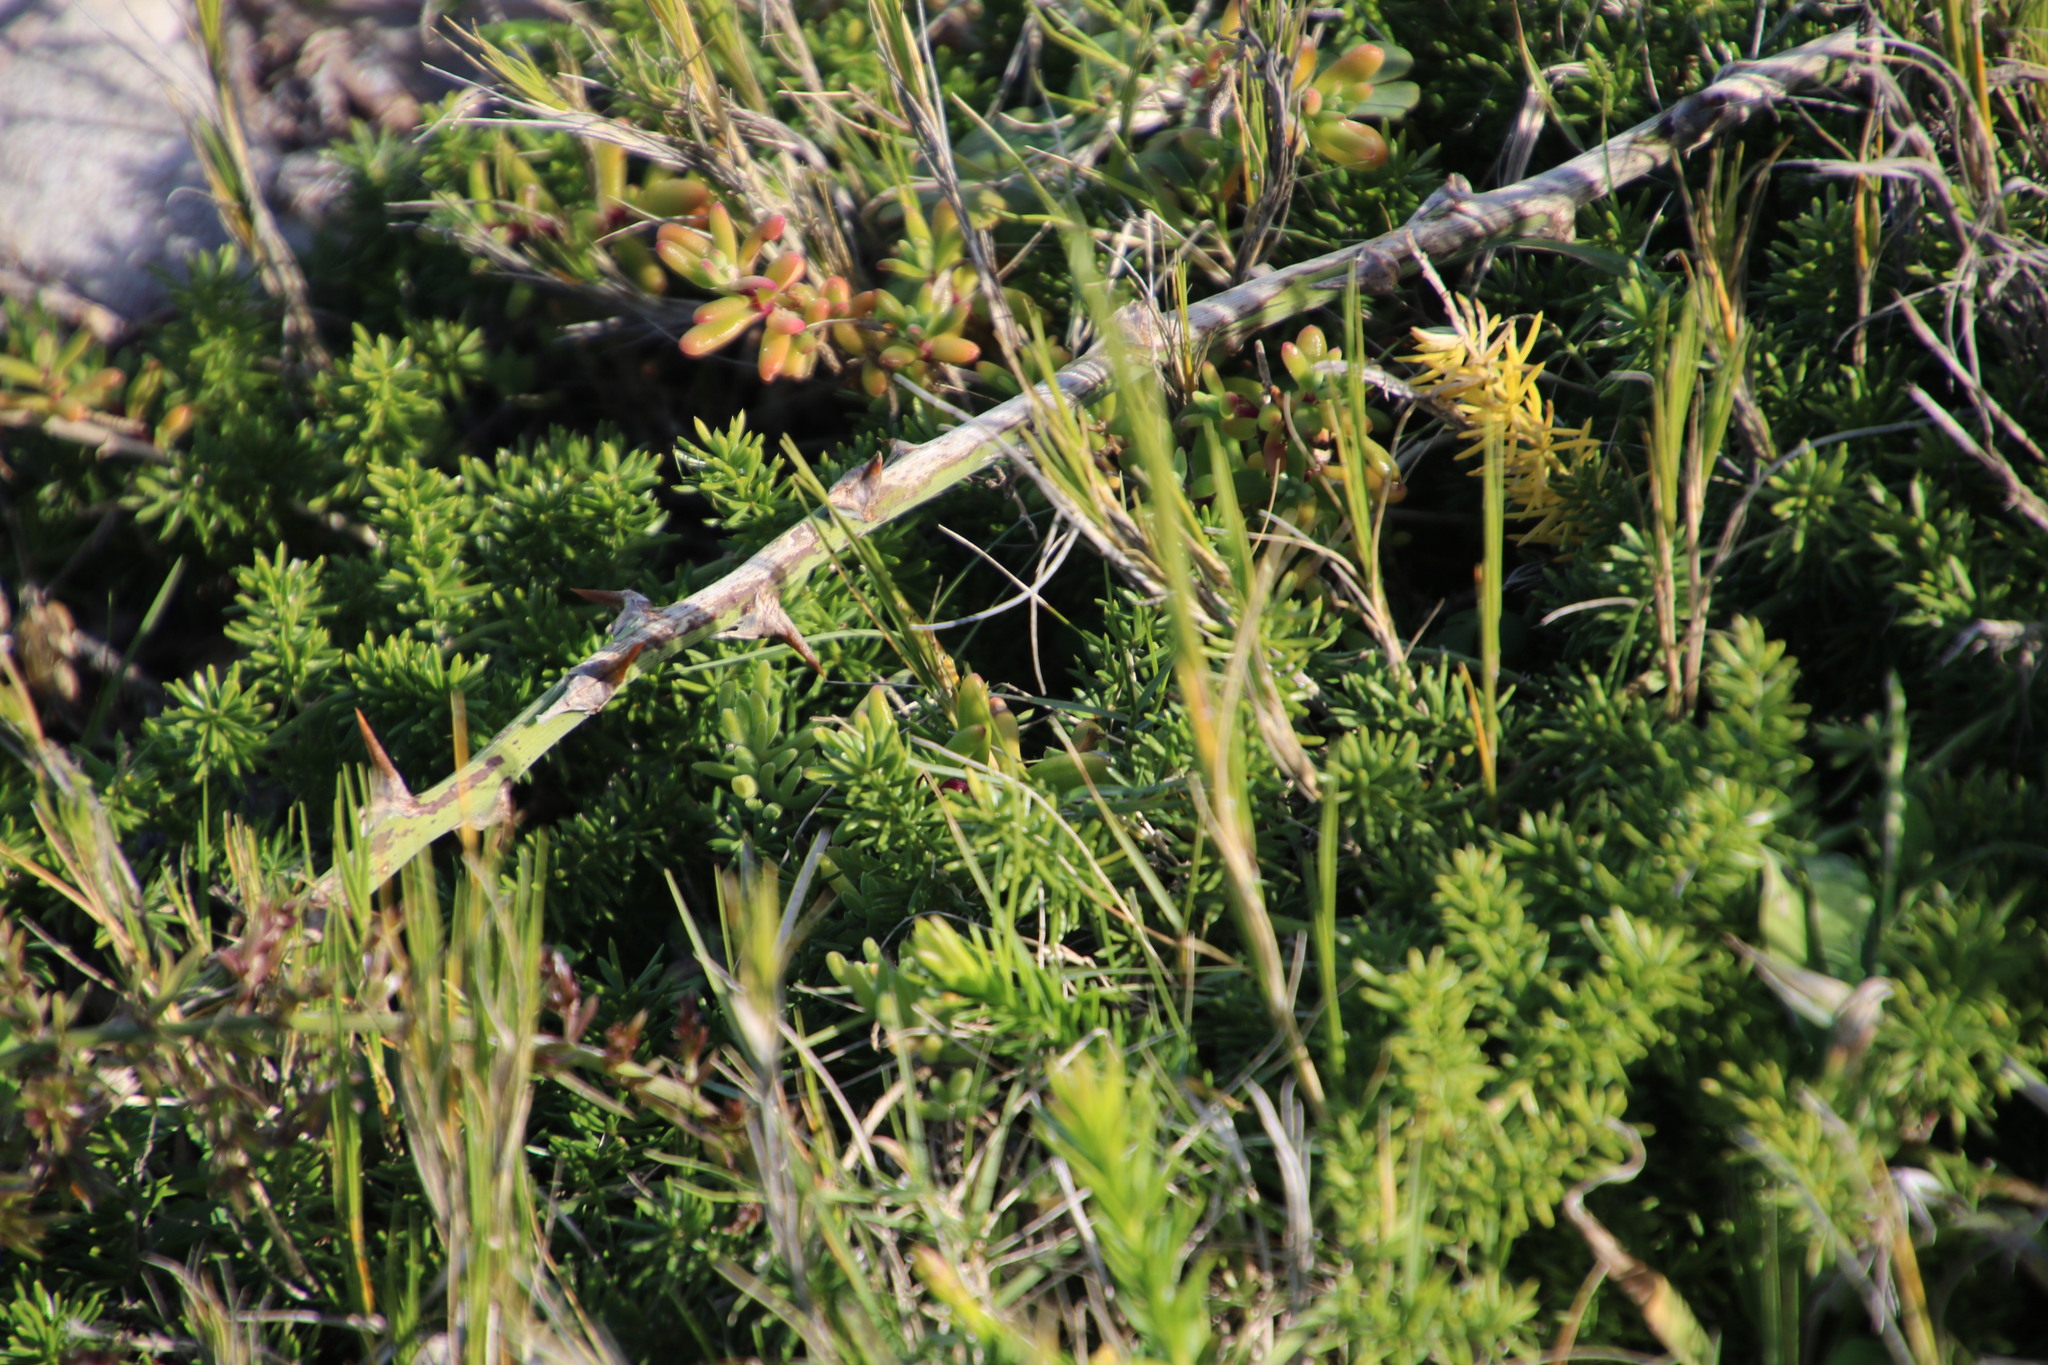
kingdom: Plantae
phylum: Tracheophyta
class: Liliopsida
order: Asparagales
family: Asparagaceae
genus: Asparagus
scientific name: Asparagus densiflorus
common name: Asparagus fern
